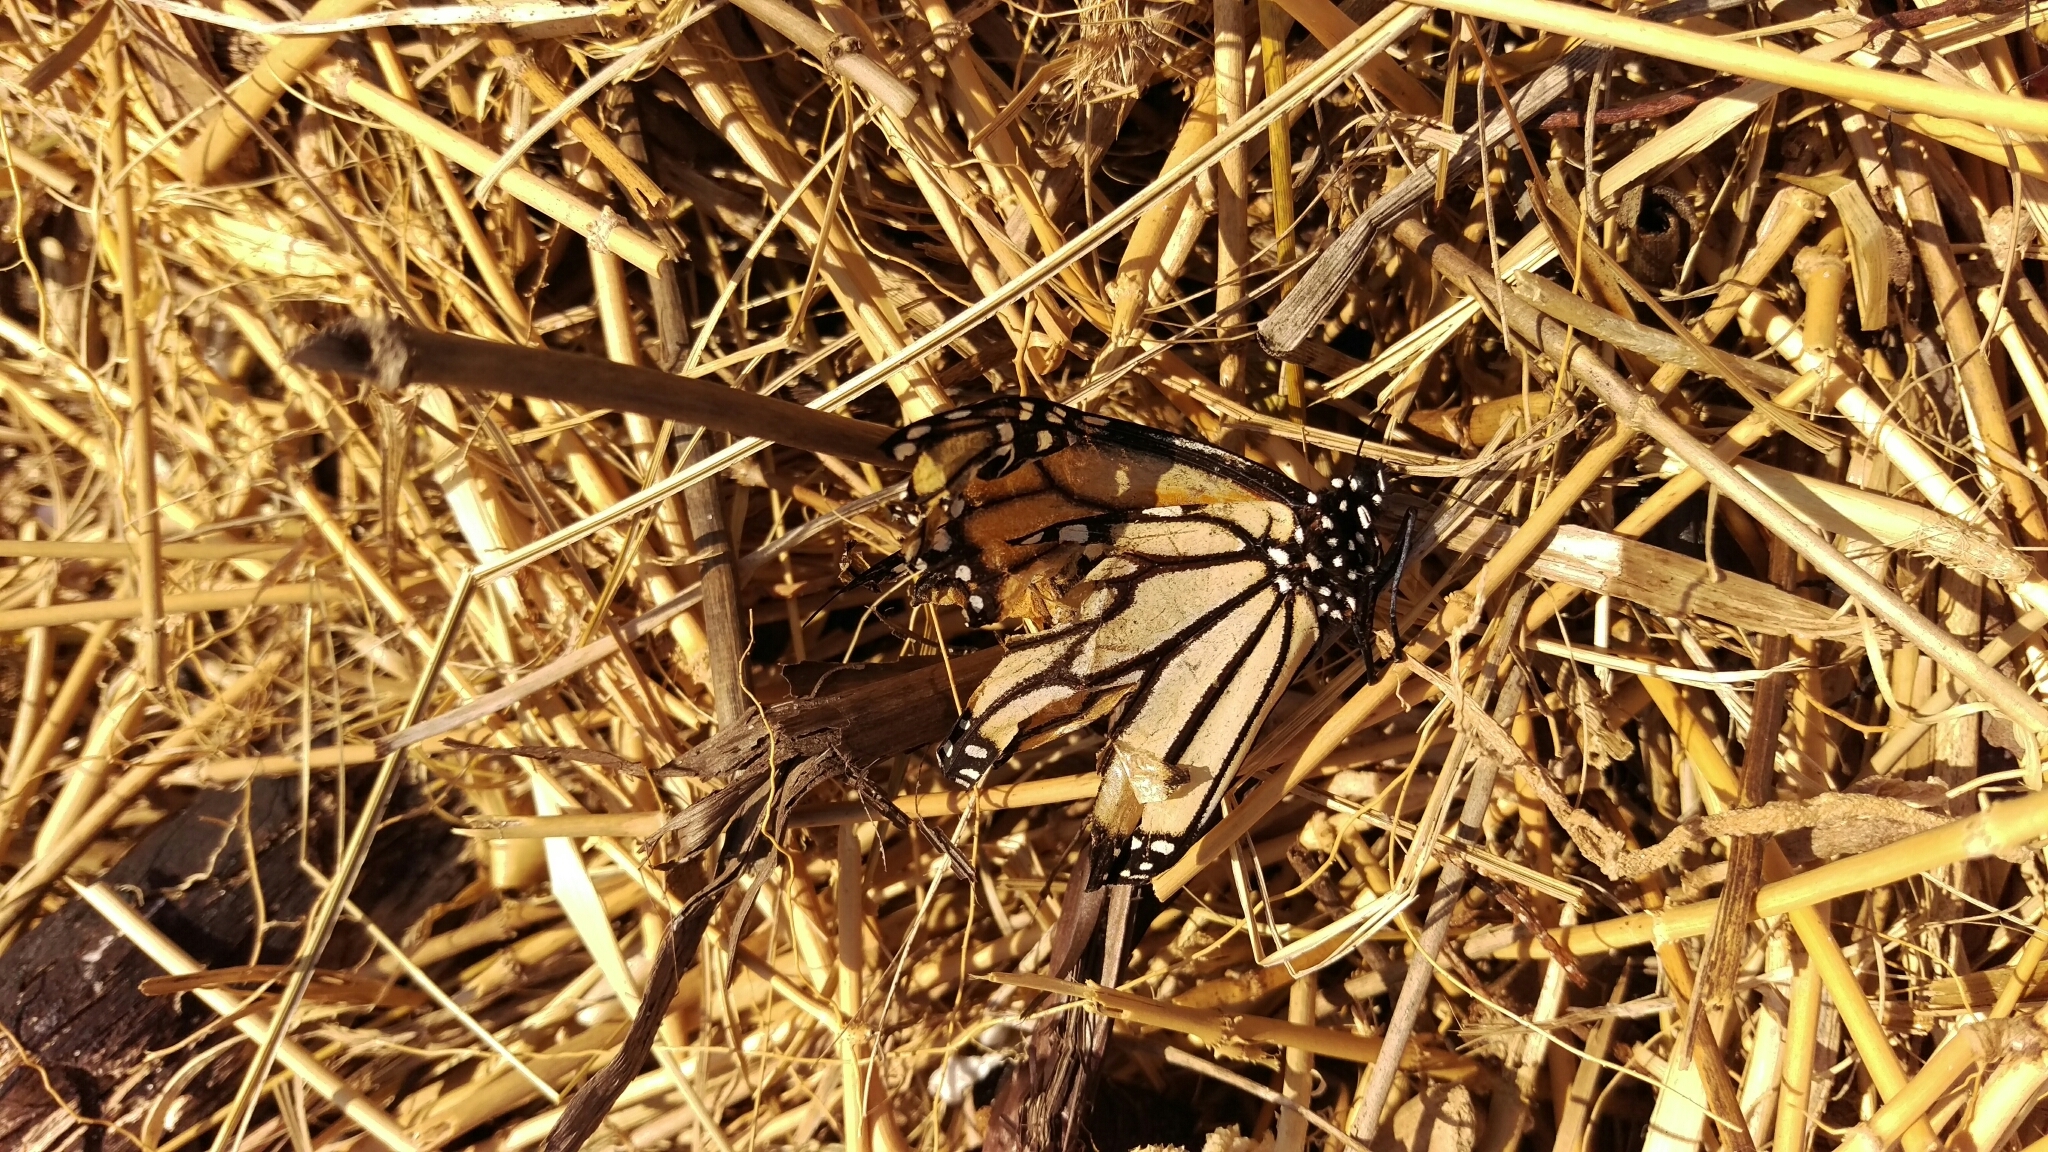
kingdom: Animalia
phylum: Arthropoda
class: Insecta
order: Lepidoptera
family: Nymphalidae
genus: Danaus
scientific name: Danaus plexippus
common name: Monarch
